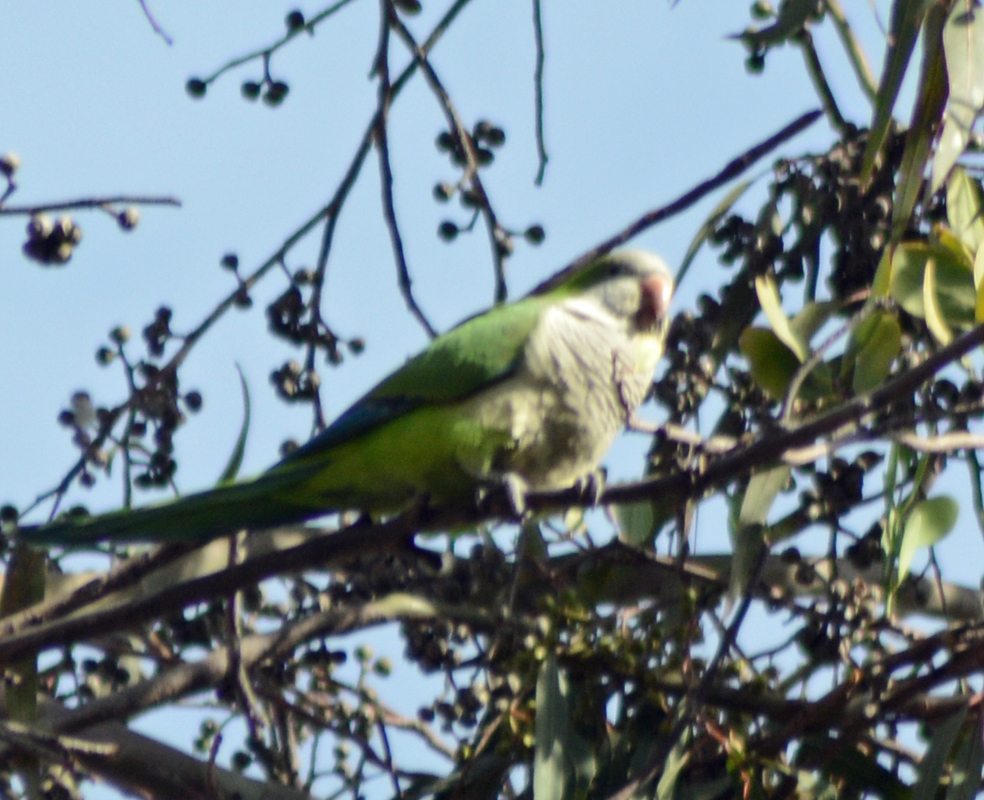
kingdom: Animalia
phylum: Chordata
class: Aves
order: Psittaciformes
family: Psittacidae
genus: Myiopsitta
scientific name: Myiopsitta monachus
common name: Monk parakeet
